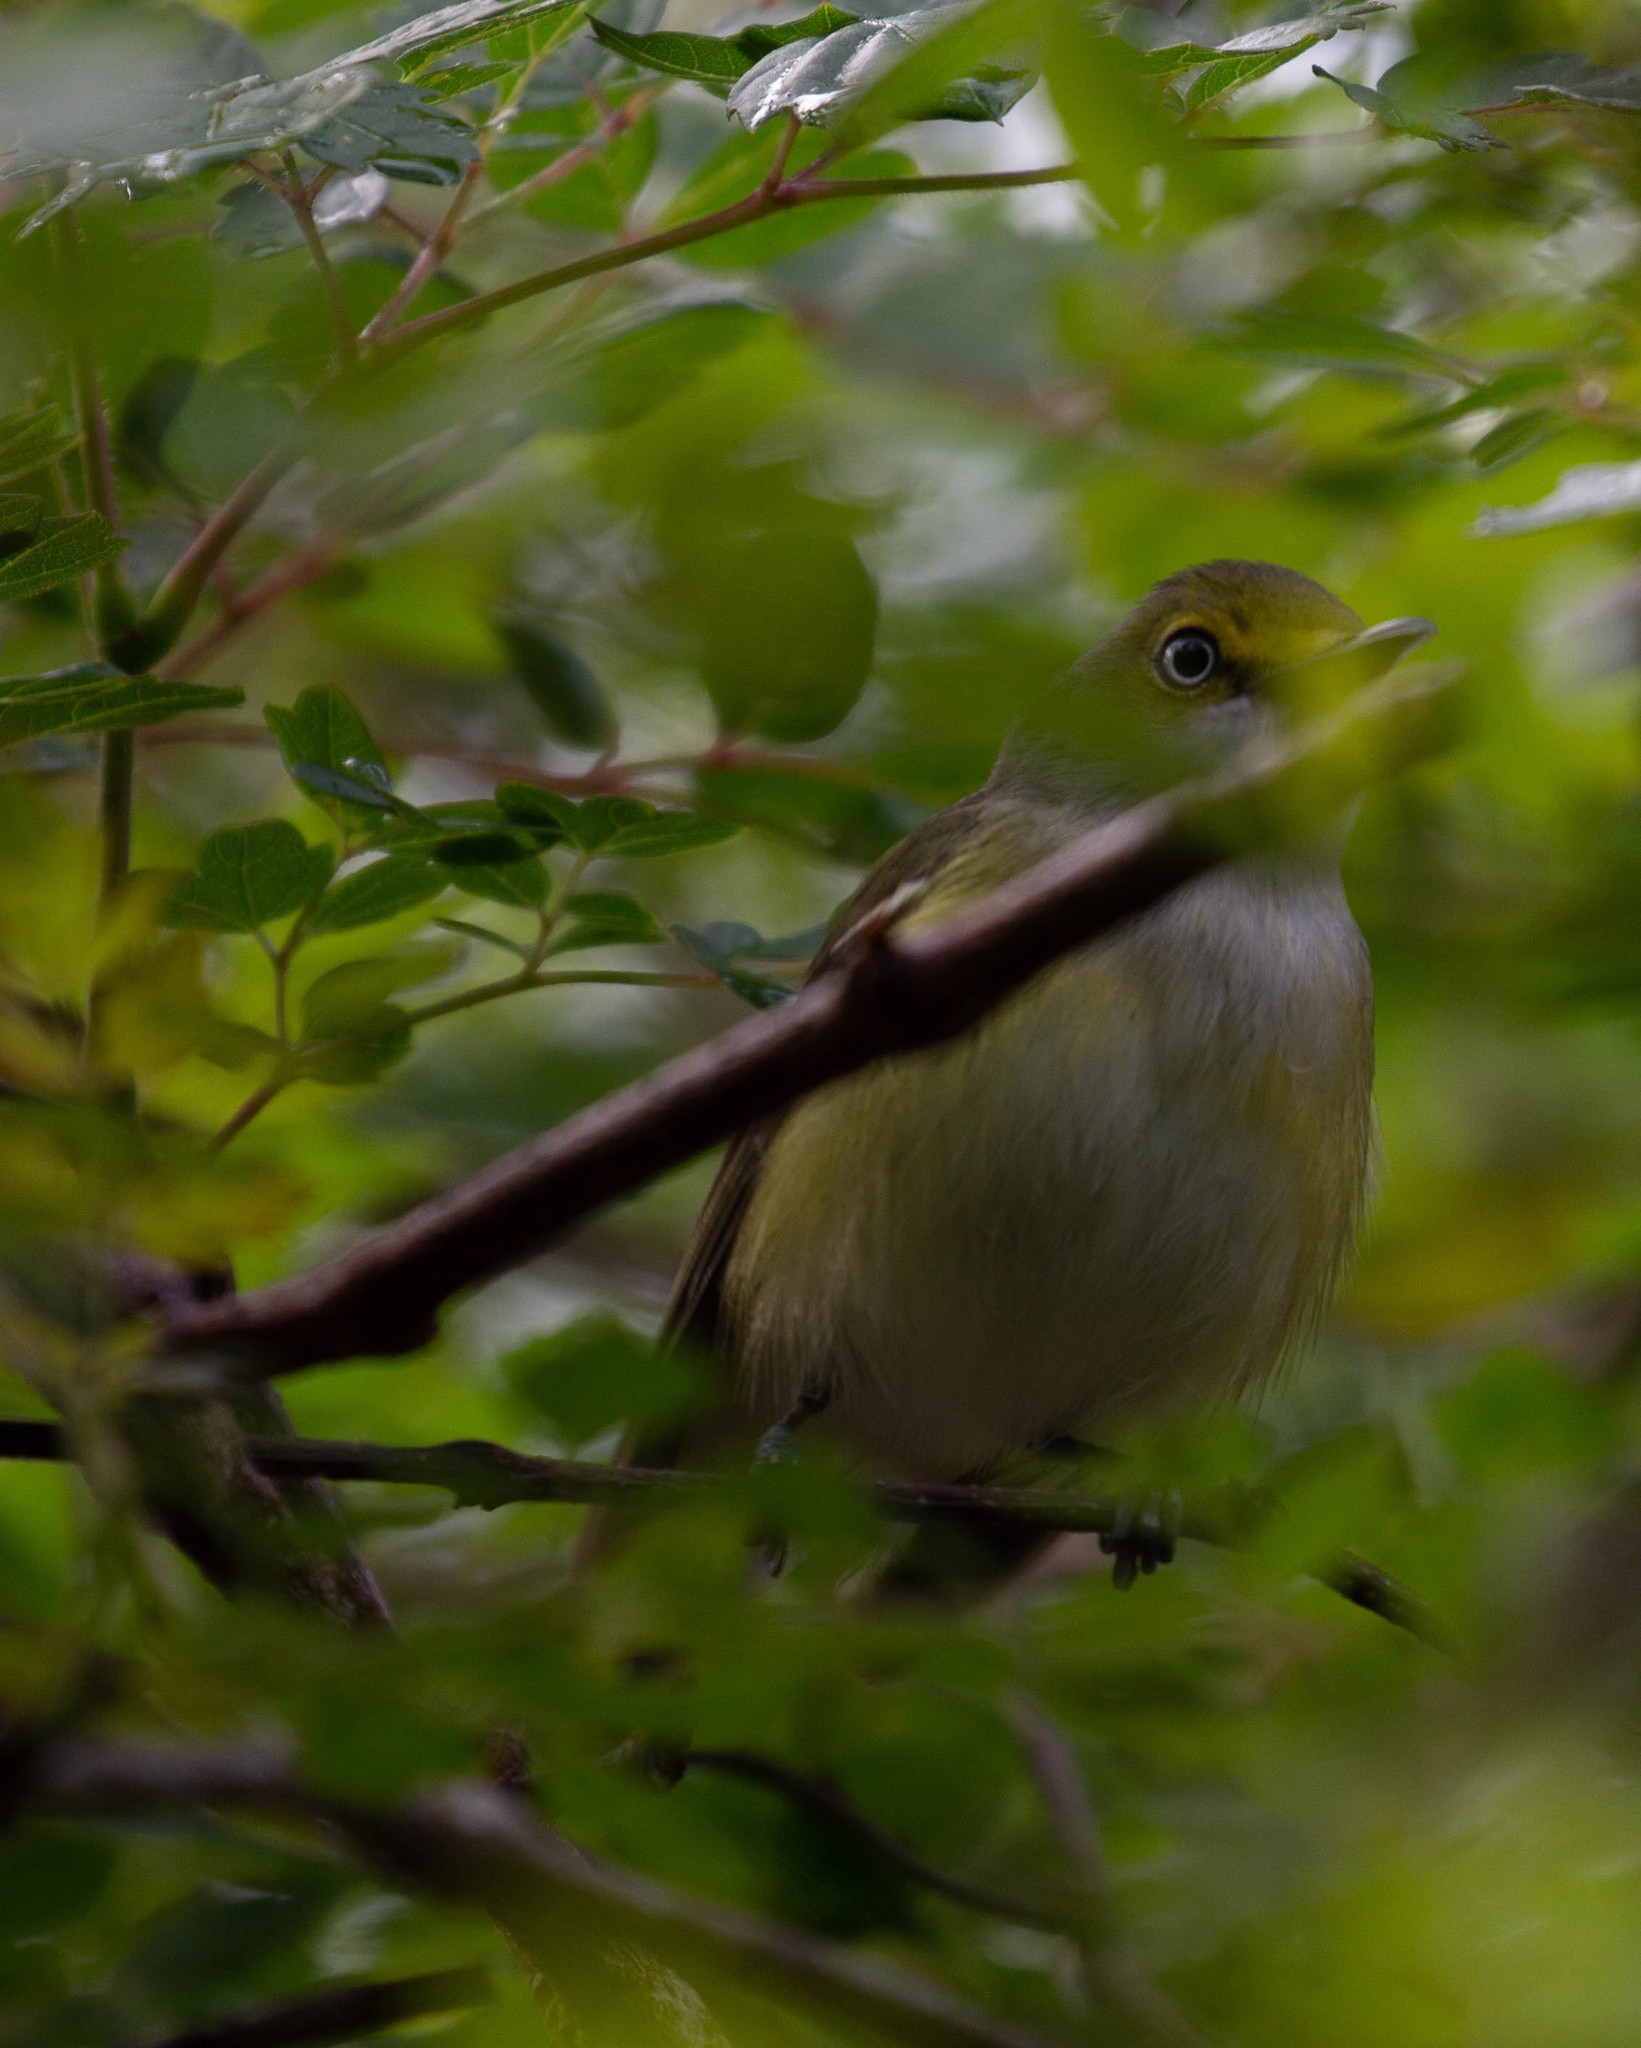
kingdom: Animalia
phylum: Chordata
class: Aves
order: Passeriformes
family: Vireonidae
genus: Vireo
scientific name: Vireo griseus
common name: White-eyed vireo
